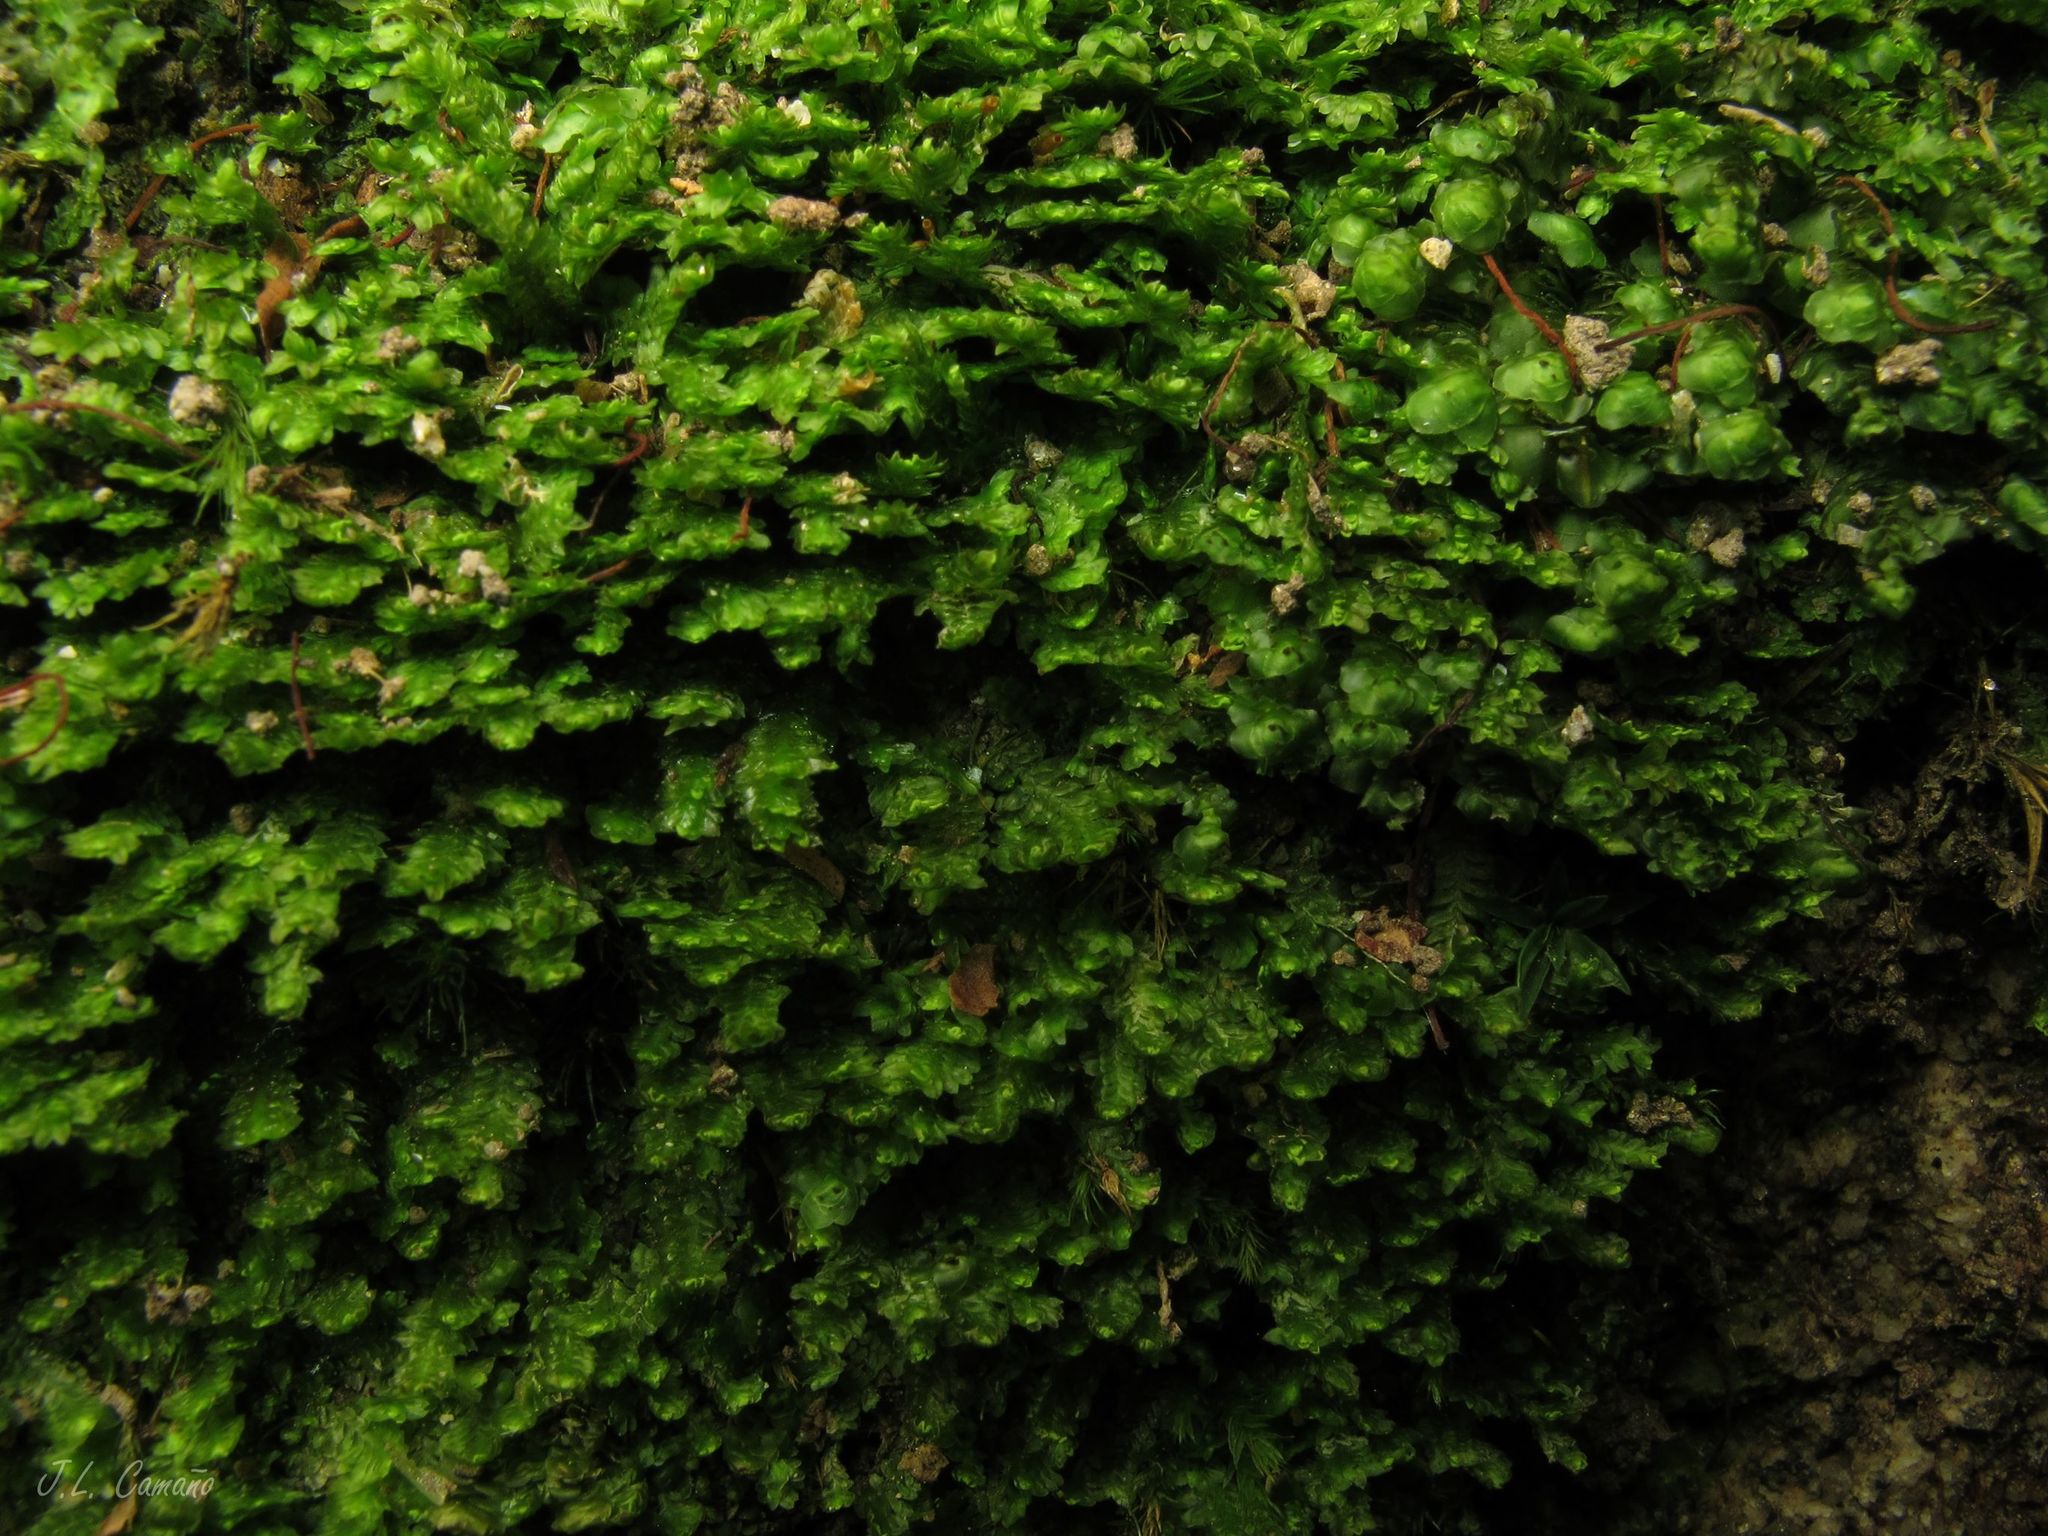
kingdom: Plantae
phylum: Marchantiophyta
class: Jungermanniopsida
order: Jungermanniales
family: Scapaniaceae
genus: Scapania
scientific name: Scapania nemorea
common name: Grove earwort
